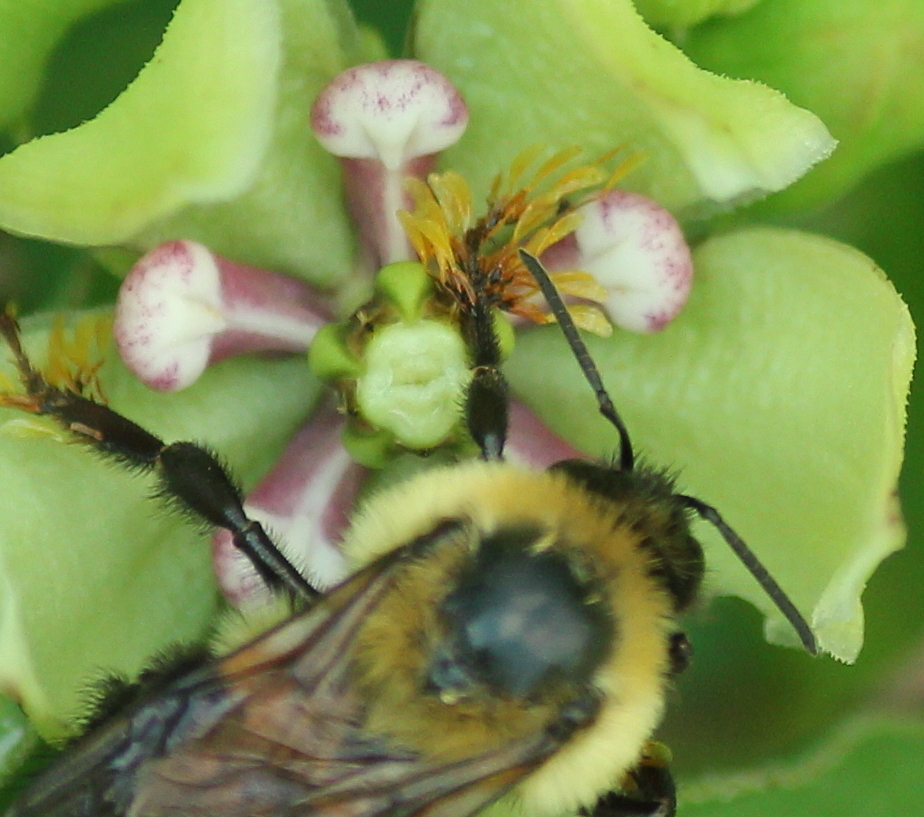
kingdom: Animalia
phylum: Arthropoda
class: Insecta
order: Hymenoptera
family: Apidae
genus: Bombus
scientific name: Bombus bimaculatus
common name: Two-spotted bumble bee
